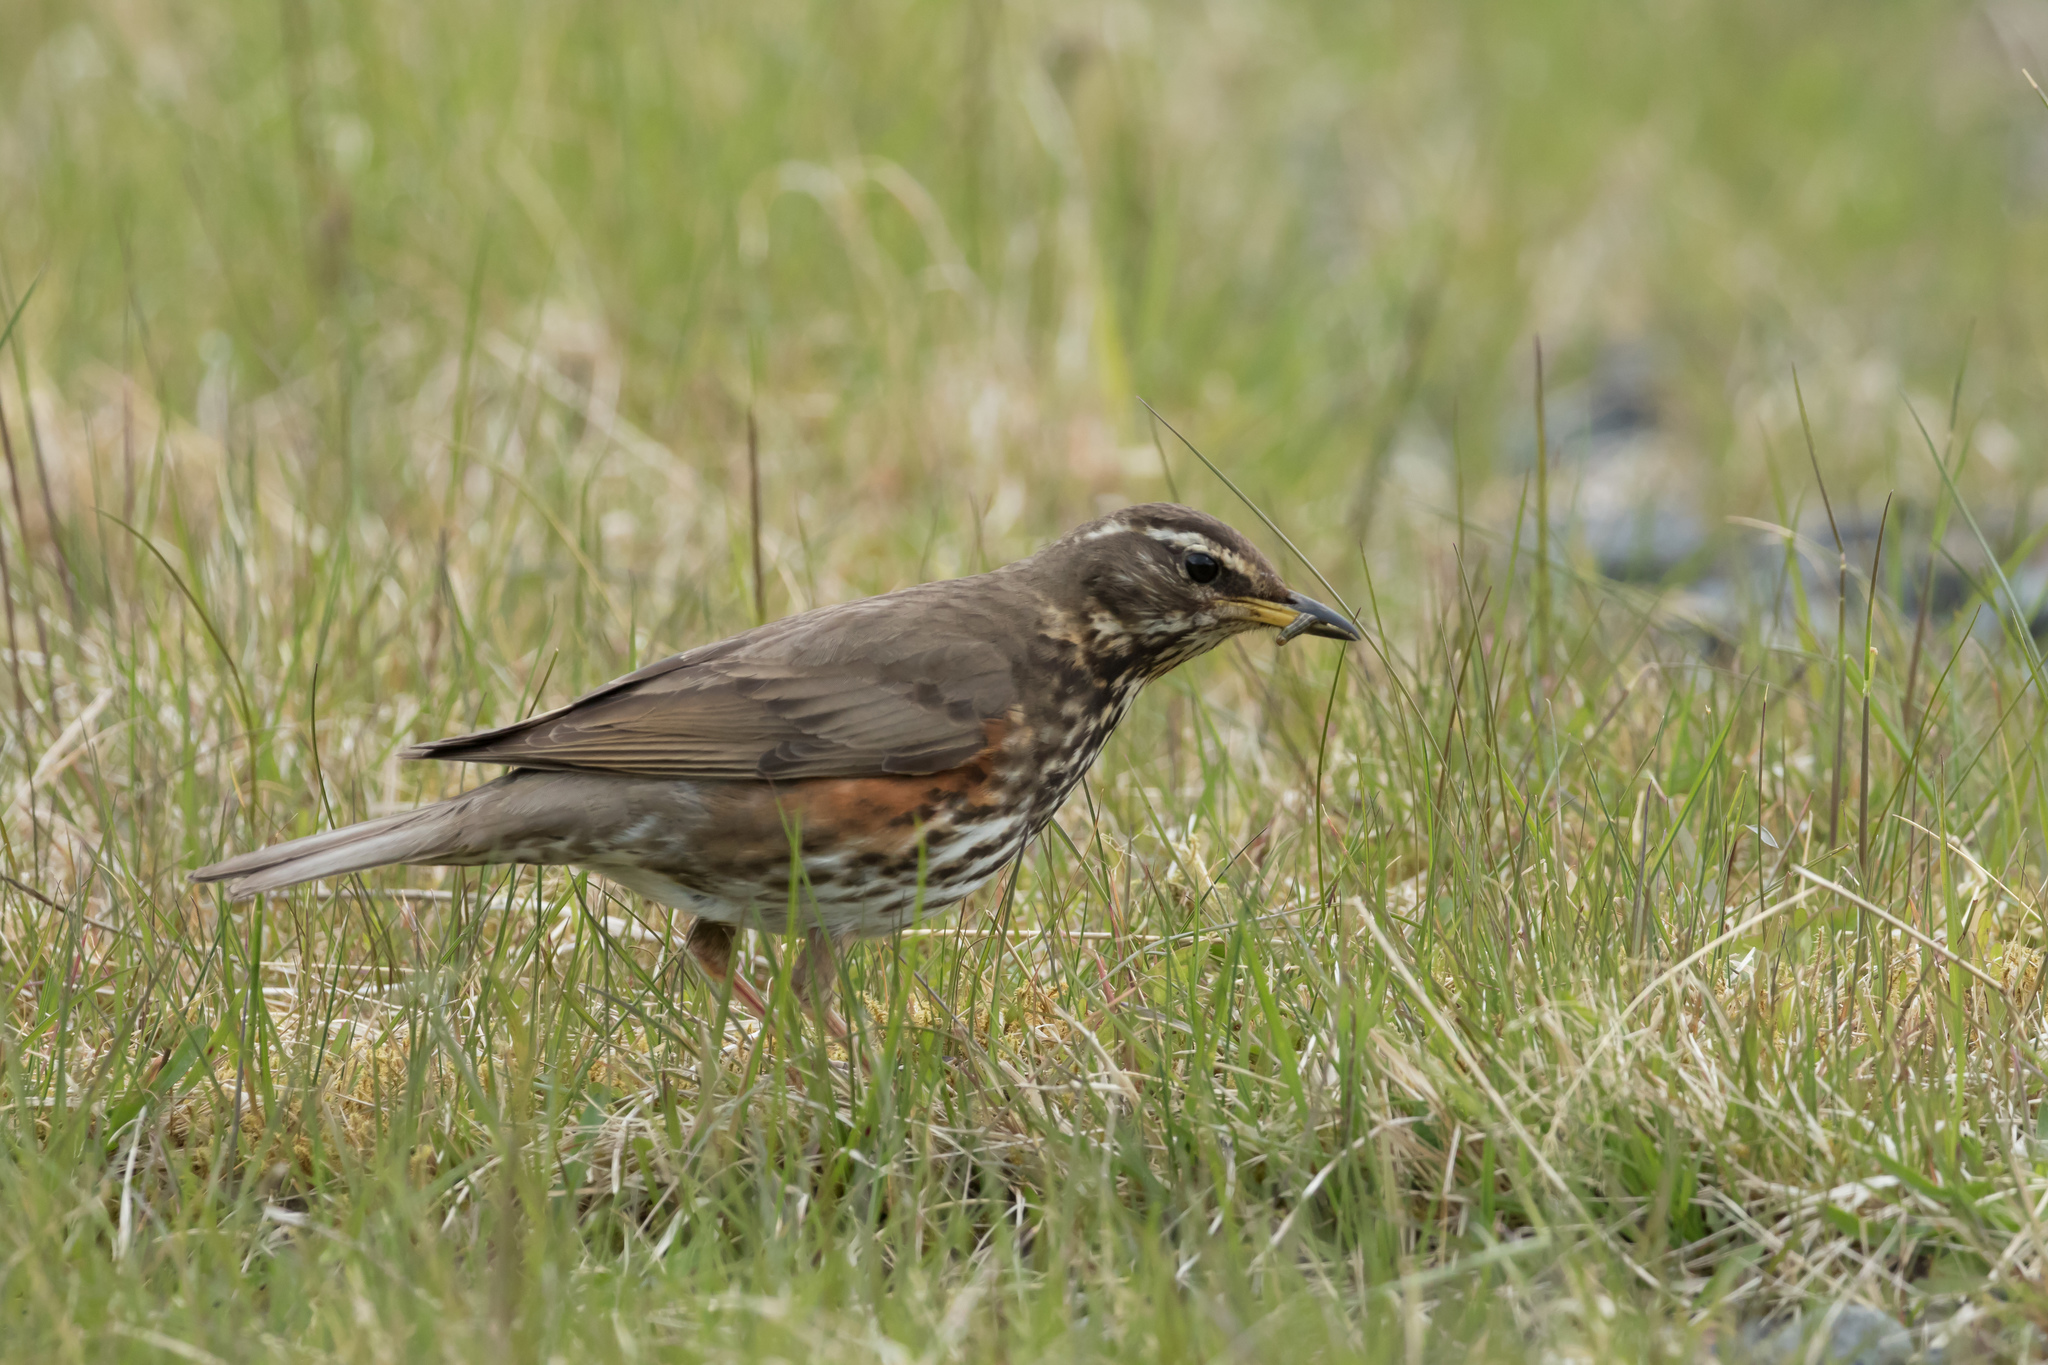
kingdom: Animalia
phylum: Chordata
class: Aves
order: Passeriformes
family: Turdidae
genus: Turdus
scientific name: Turdus iliacus
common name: Redwing
